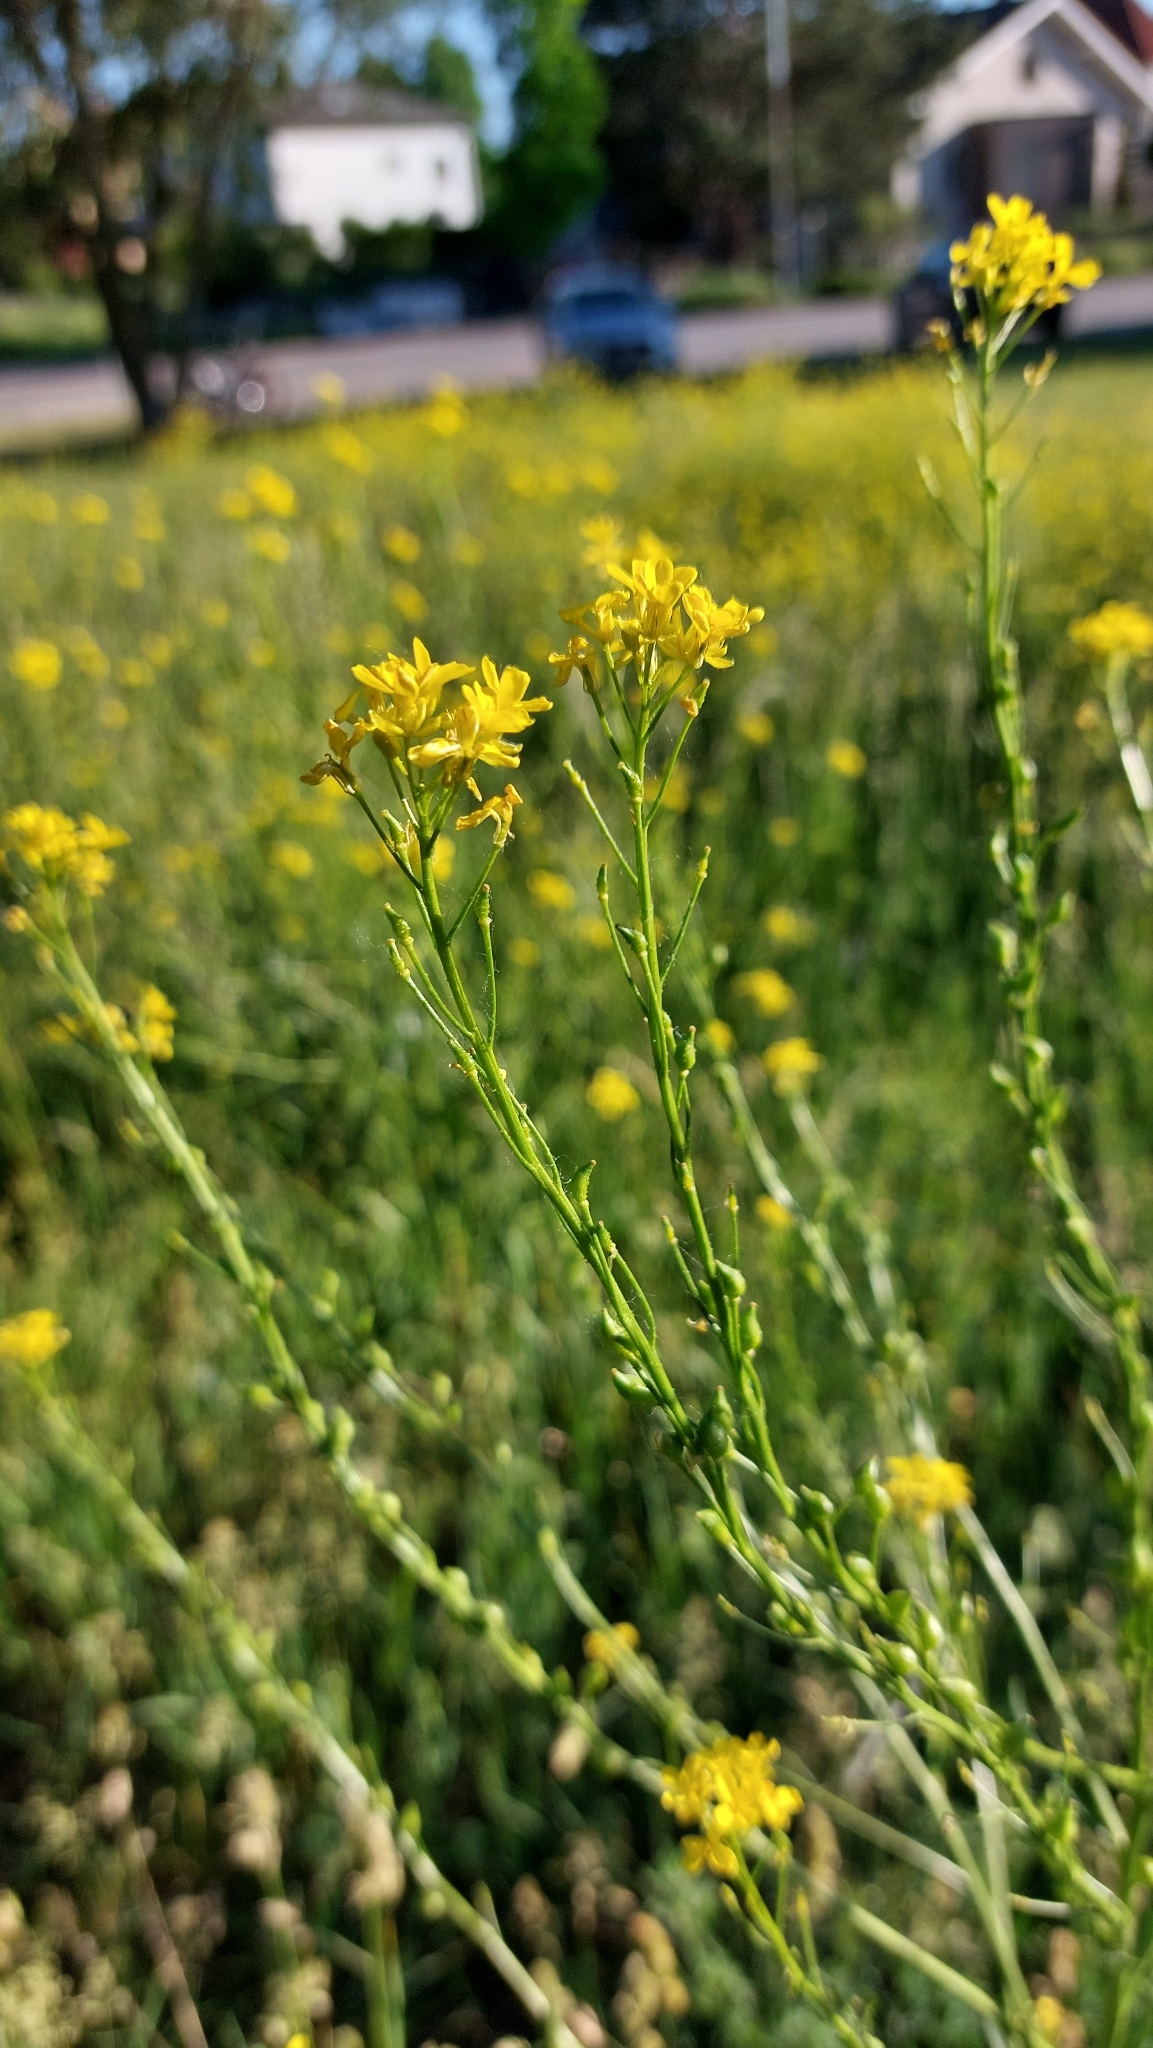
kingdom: Plantae
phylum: Tracheophyta
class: Magnoliopsida
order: Brassicales
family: Brassicaceae
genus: Bunias
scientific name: Bunias orientalis
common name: Warty-cabbage
